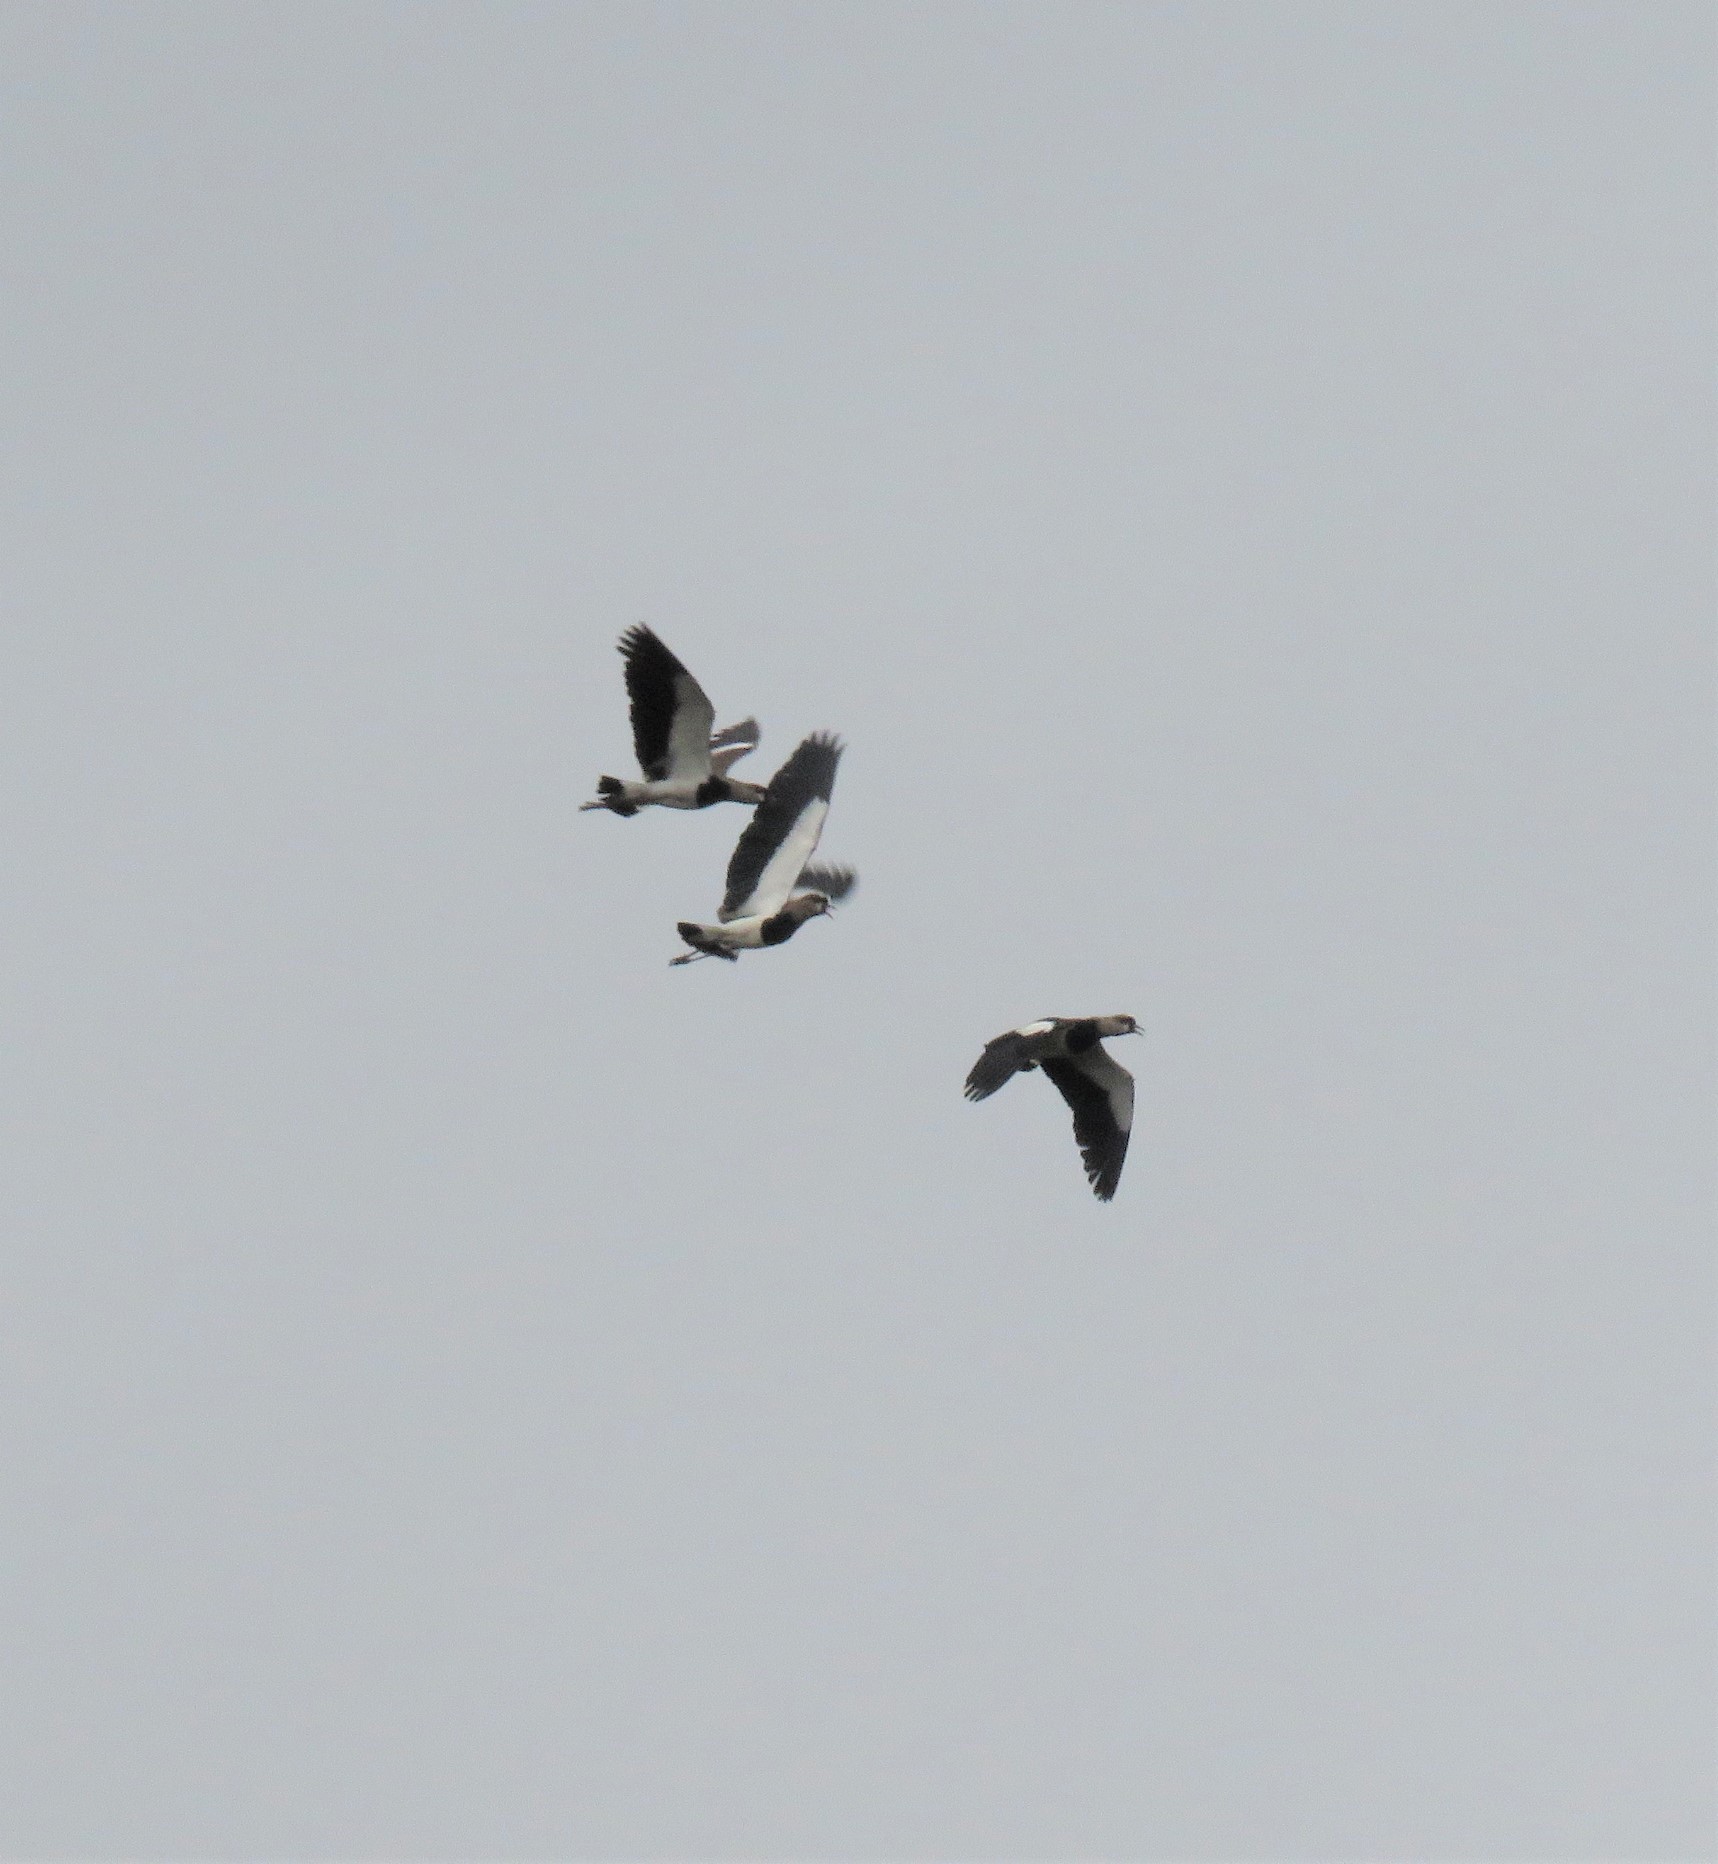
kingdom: Animalia
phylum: Chordata
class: Aves
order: Charadriiformes
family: Charadriidae
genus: Vanellus
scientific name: Vanellus chilensis
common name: Southern lapwing
